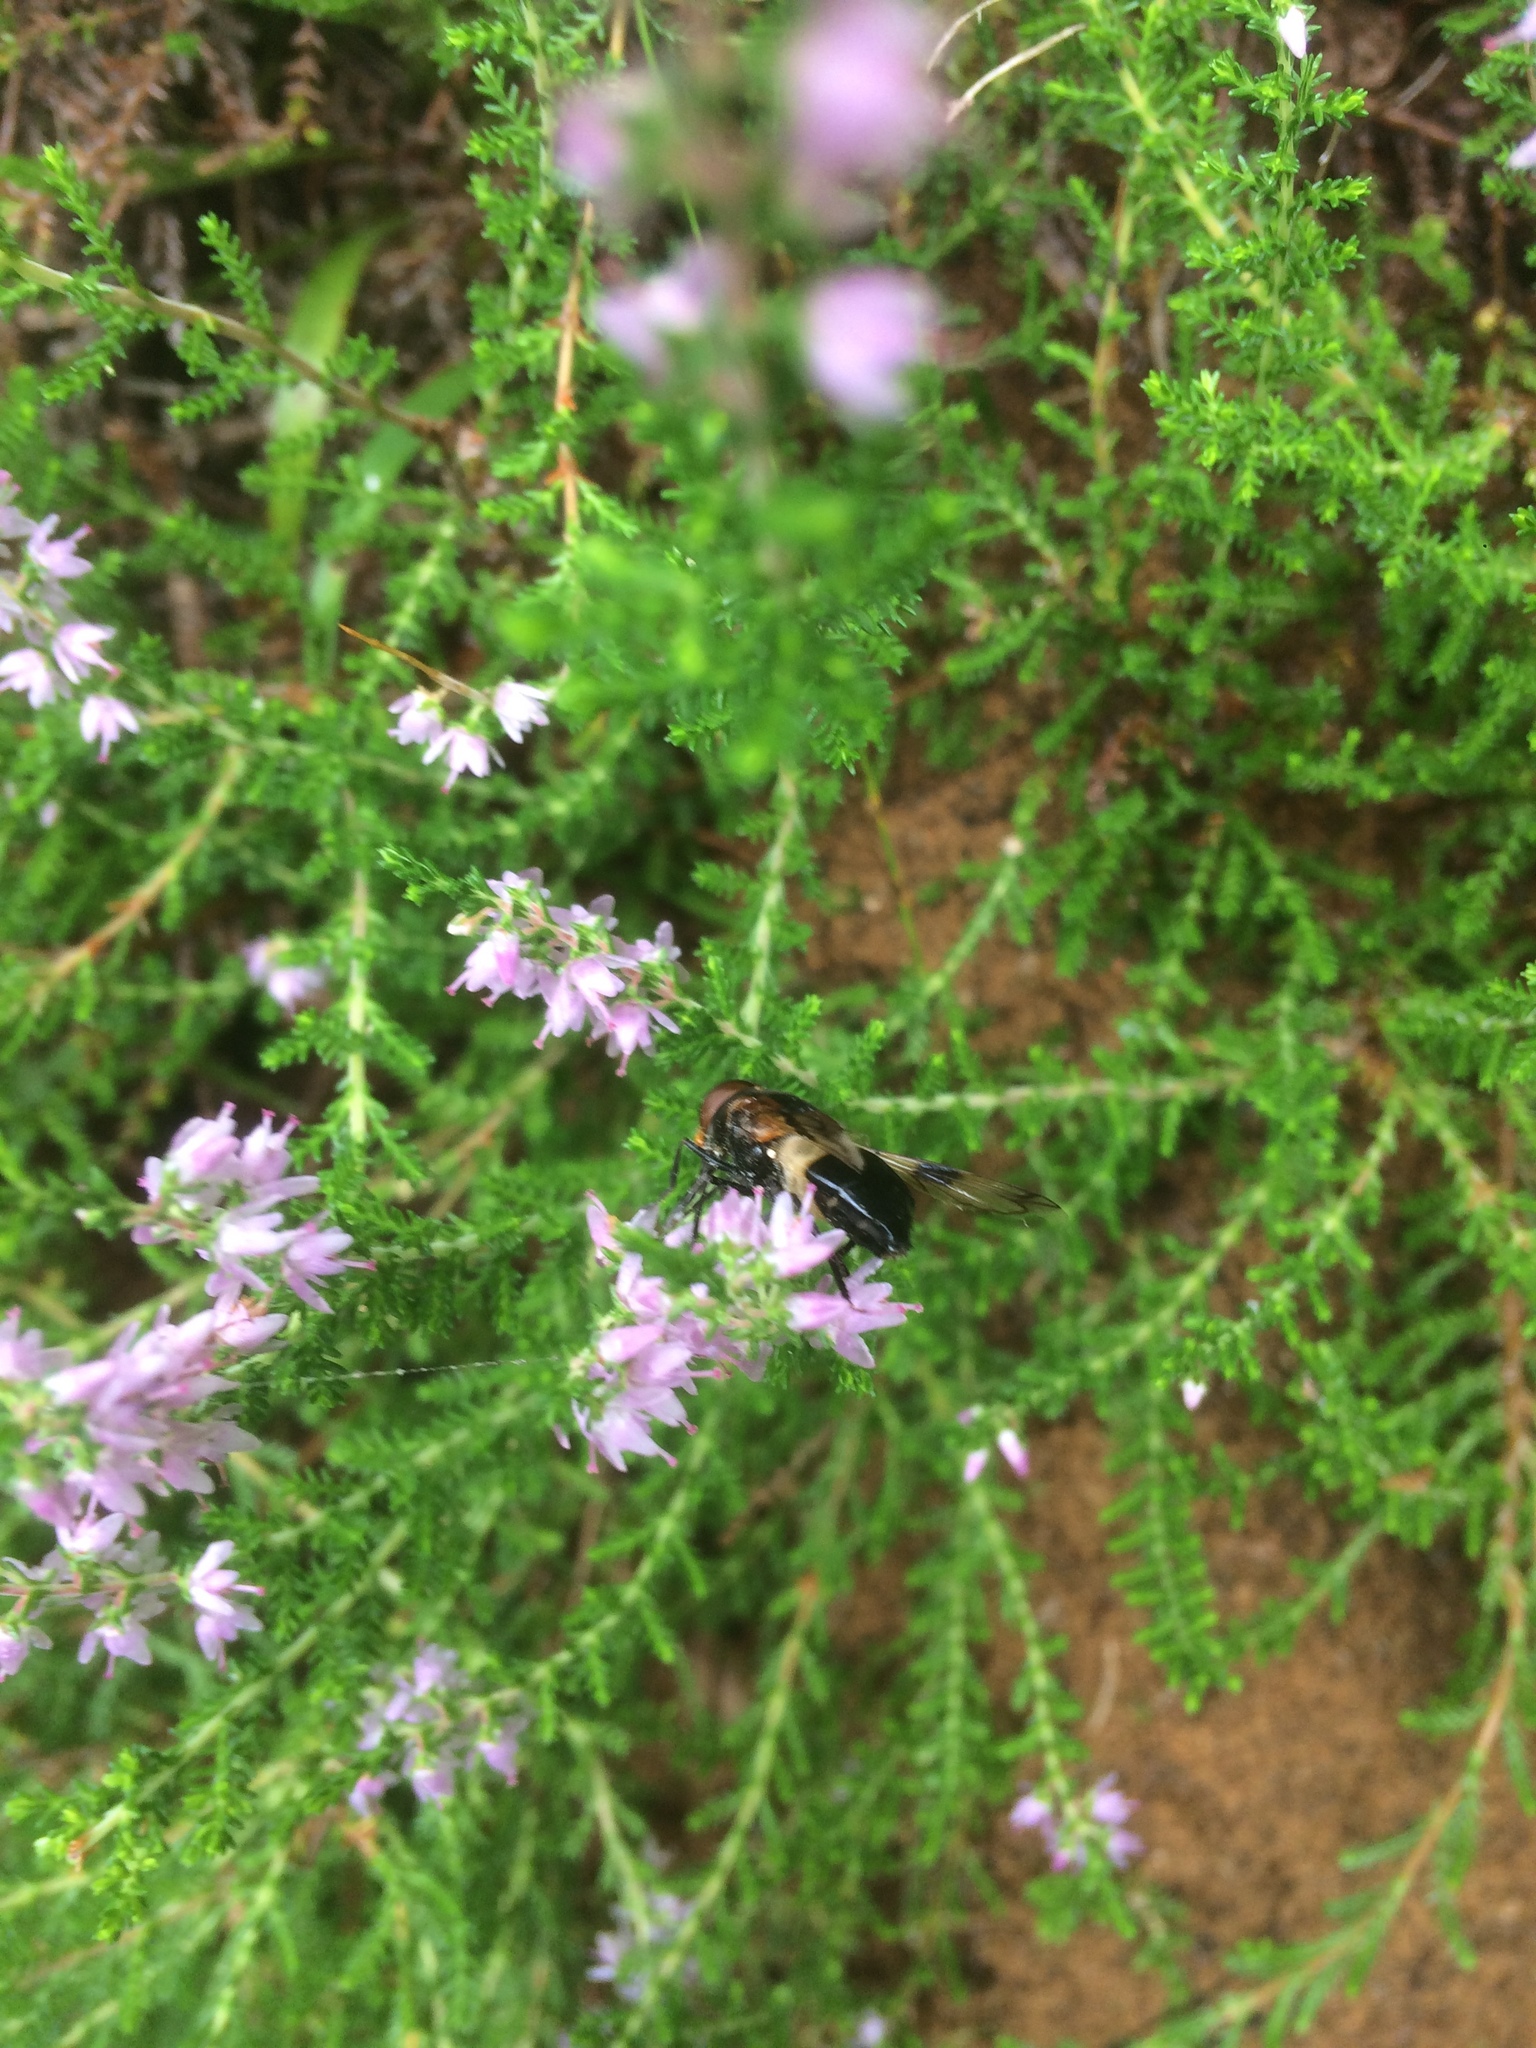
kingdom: Animalia
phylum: Arthropoda
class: Insecta
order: Diptera
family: Syrphidae
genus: Volucella
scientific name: Volucella pellucens
